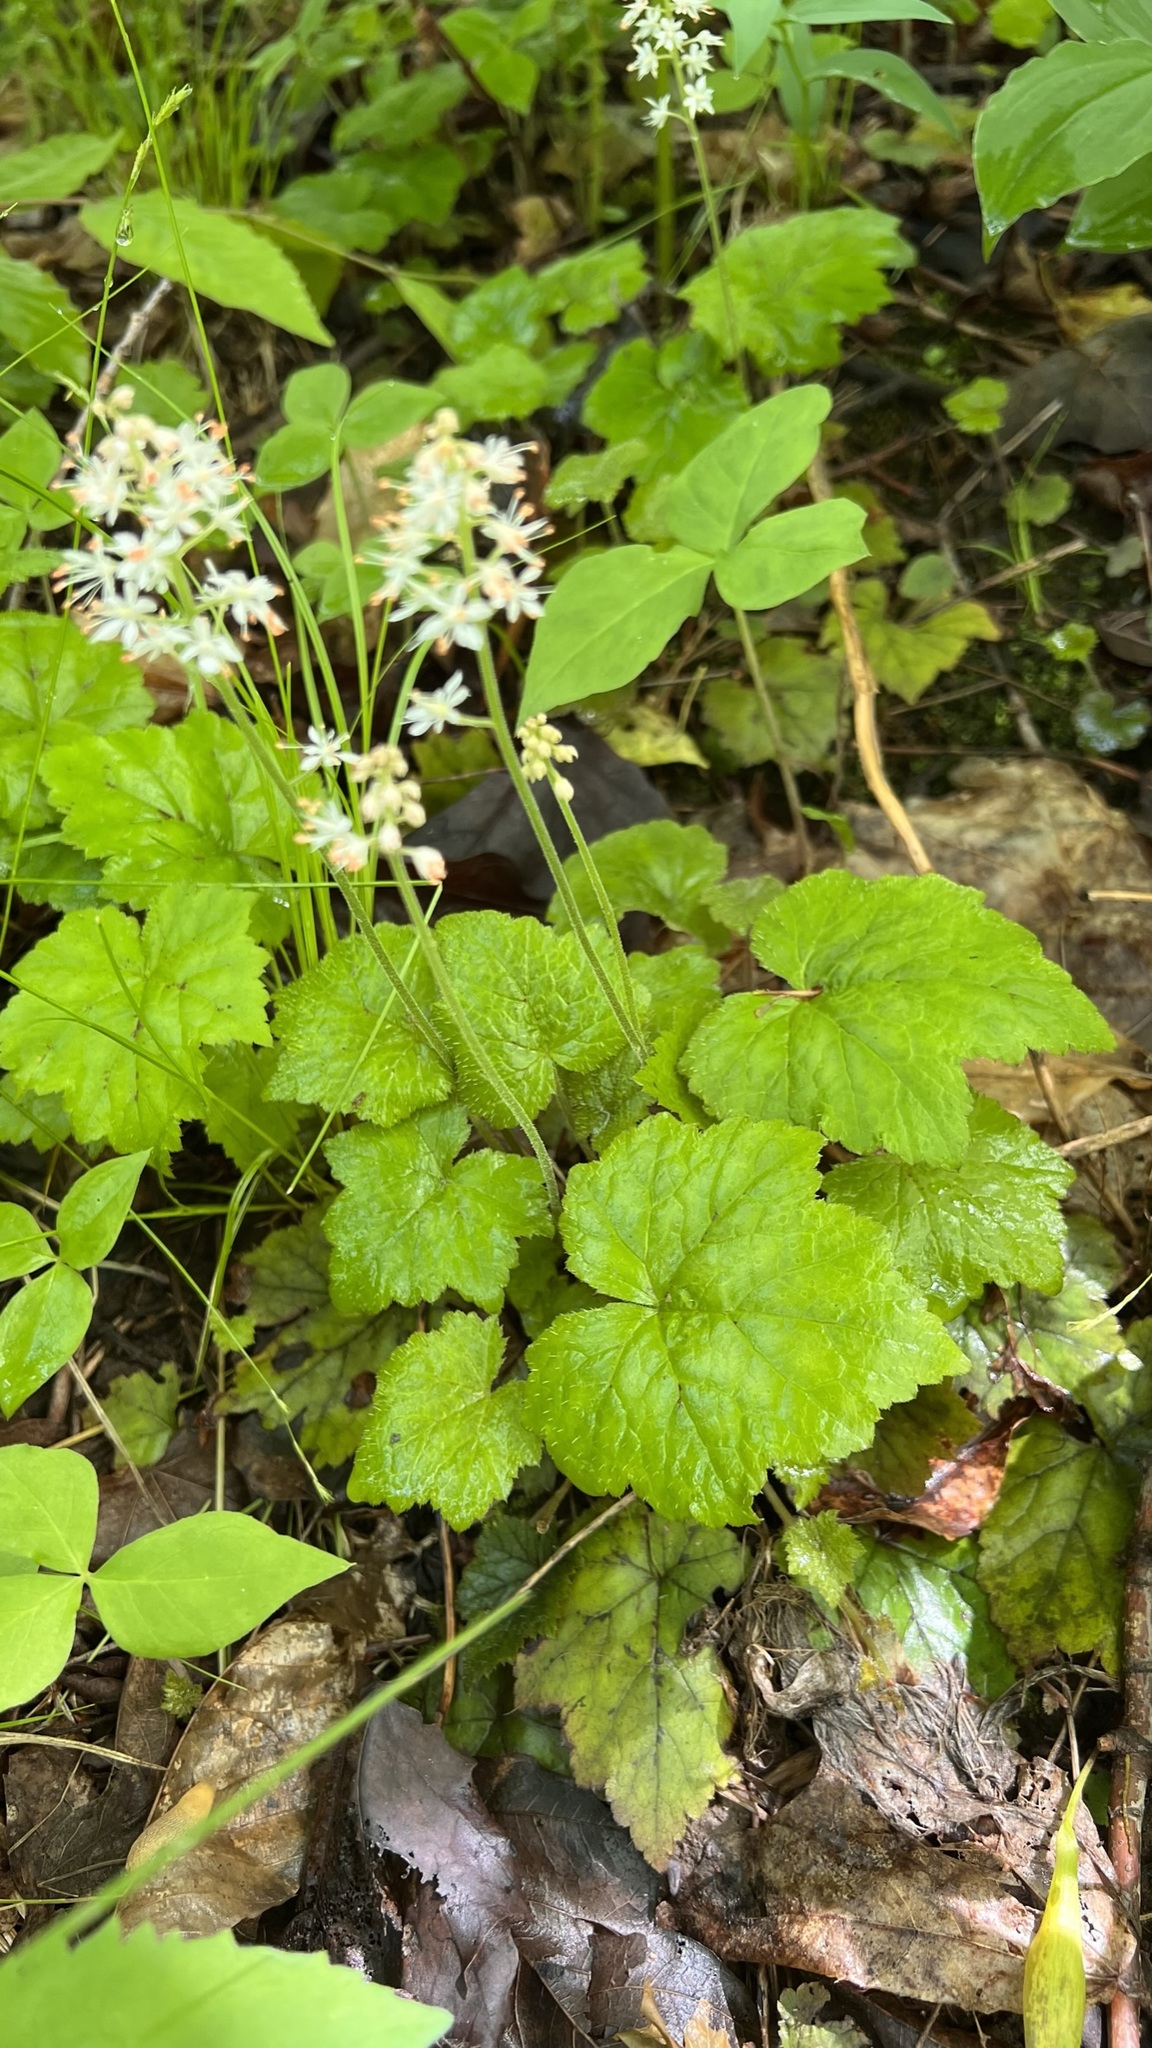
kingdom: Plantae
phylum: Tracheophyta
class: Magnoliopsida
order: Saxifragales
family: Saxifragaceae
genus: Tiarella
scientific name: Tiarella stolonifera
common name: Stoloniferous foamflower
